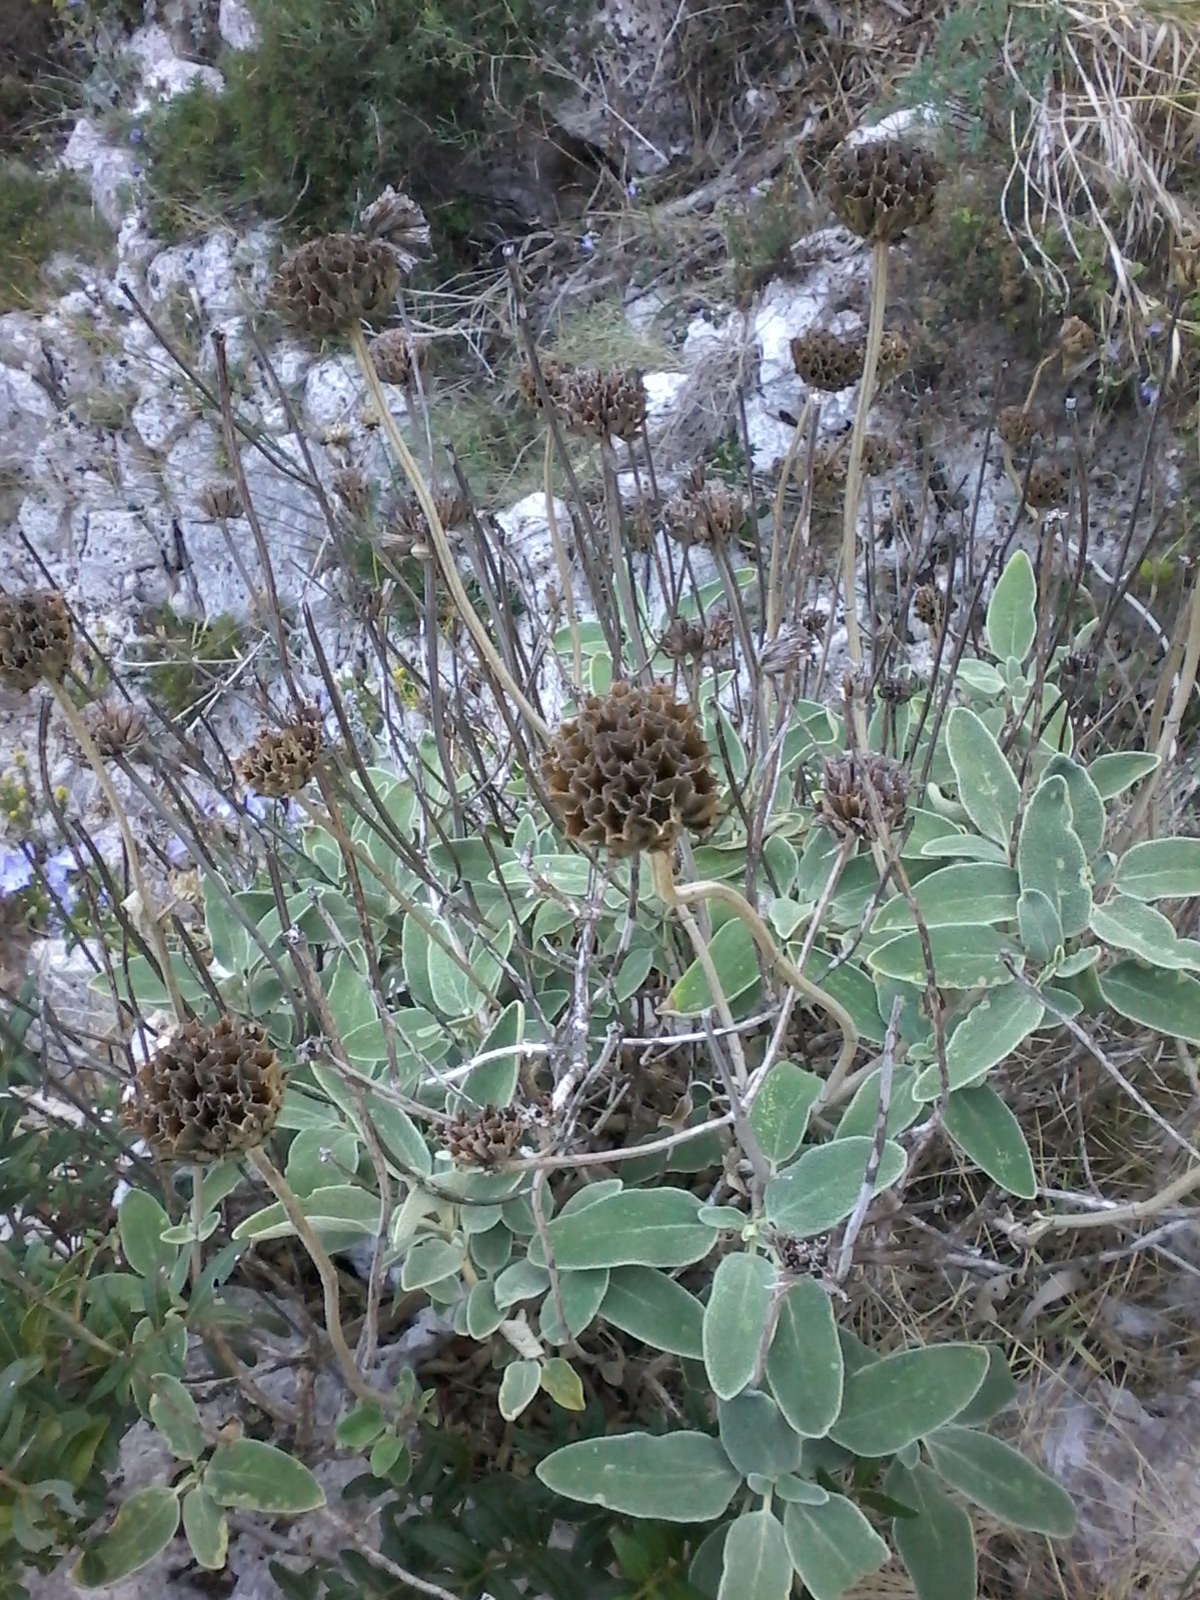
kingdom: Plantae
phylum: Tracheophyta
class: Magnoliopsida
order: Lamiales
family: Lamiaceae
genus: Phlomis
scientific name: Phlomis fruticosa
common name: Jerusalem sage
